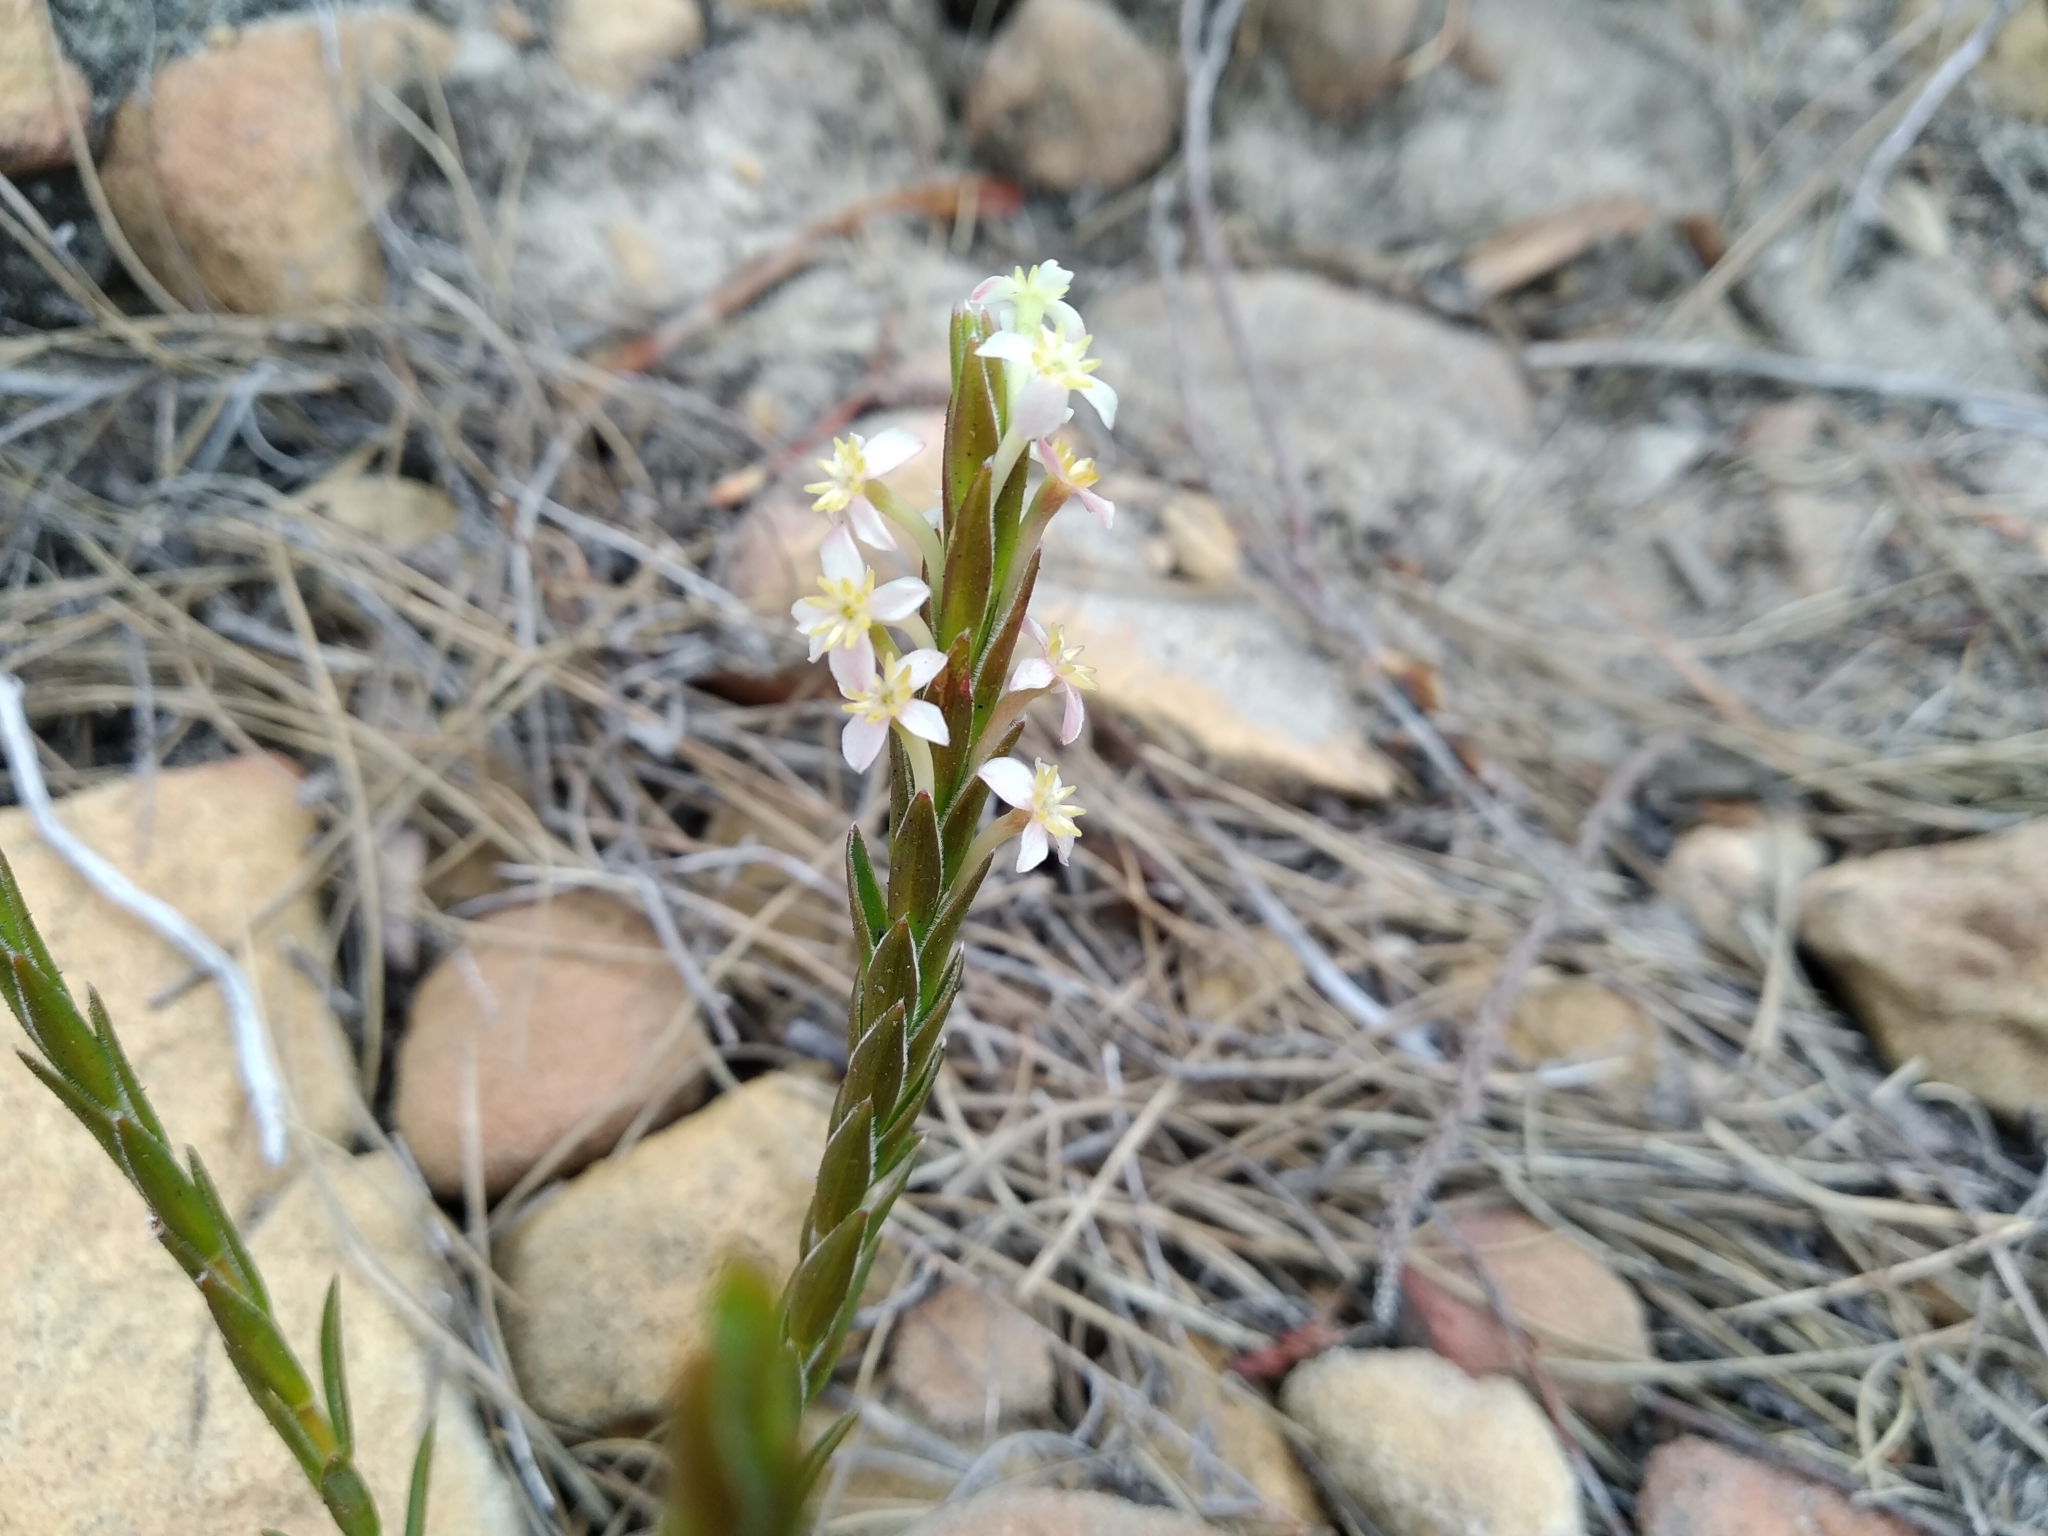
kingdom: Plantae
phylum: Tracheophyta
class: Magnoliopsida
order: Malvales
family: Thymelaeaceae
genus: Struthiola
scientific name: Struthiola ciliata
